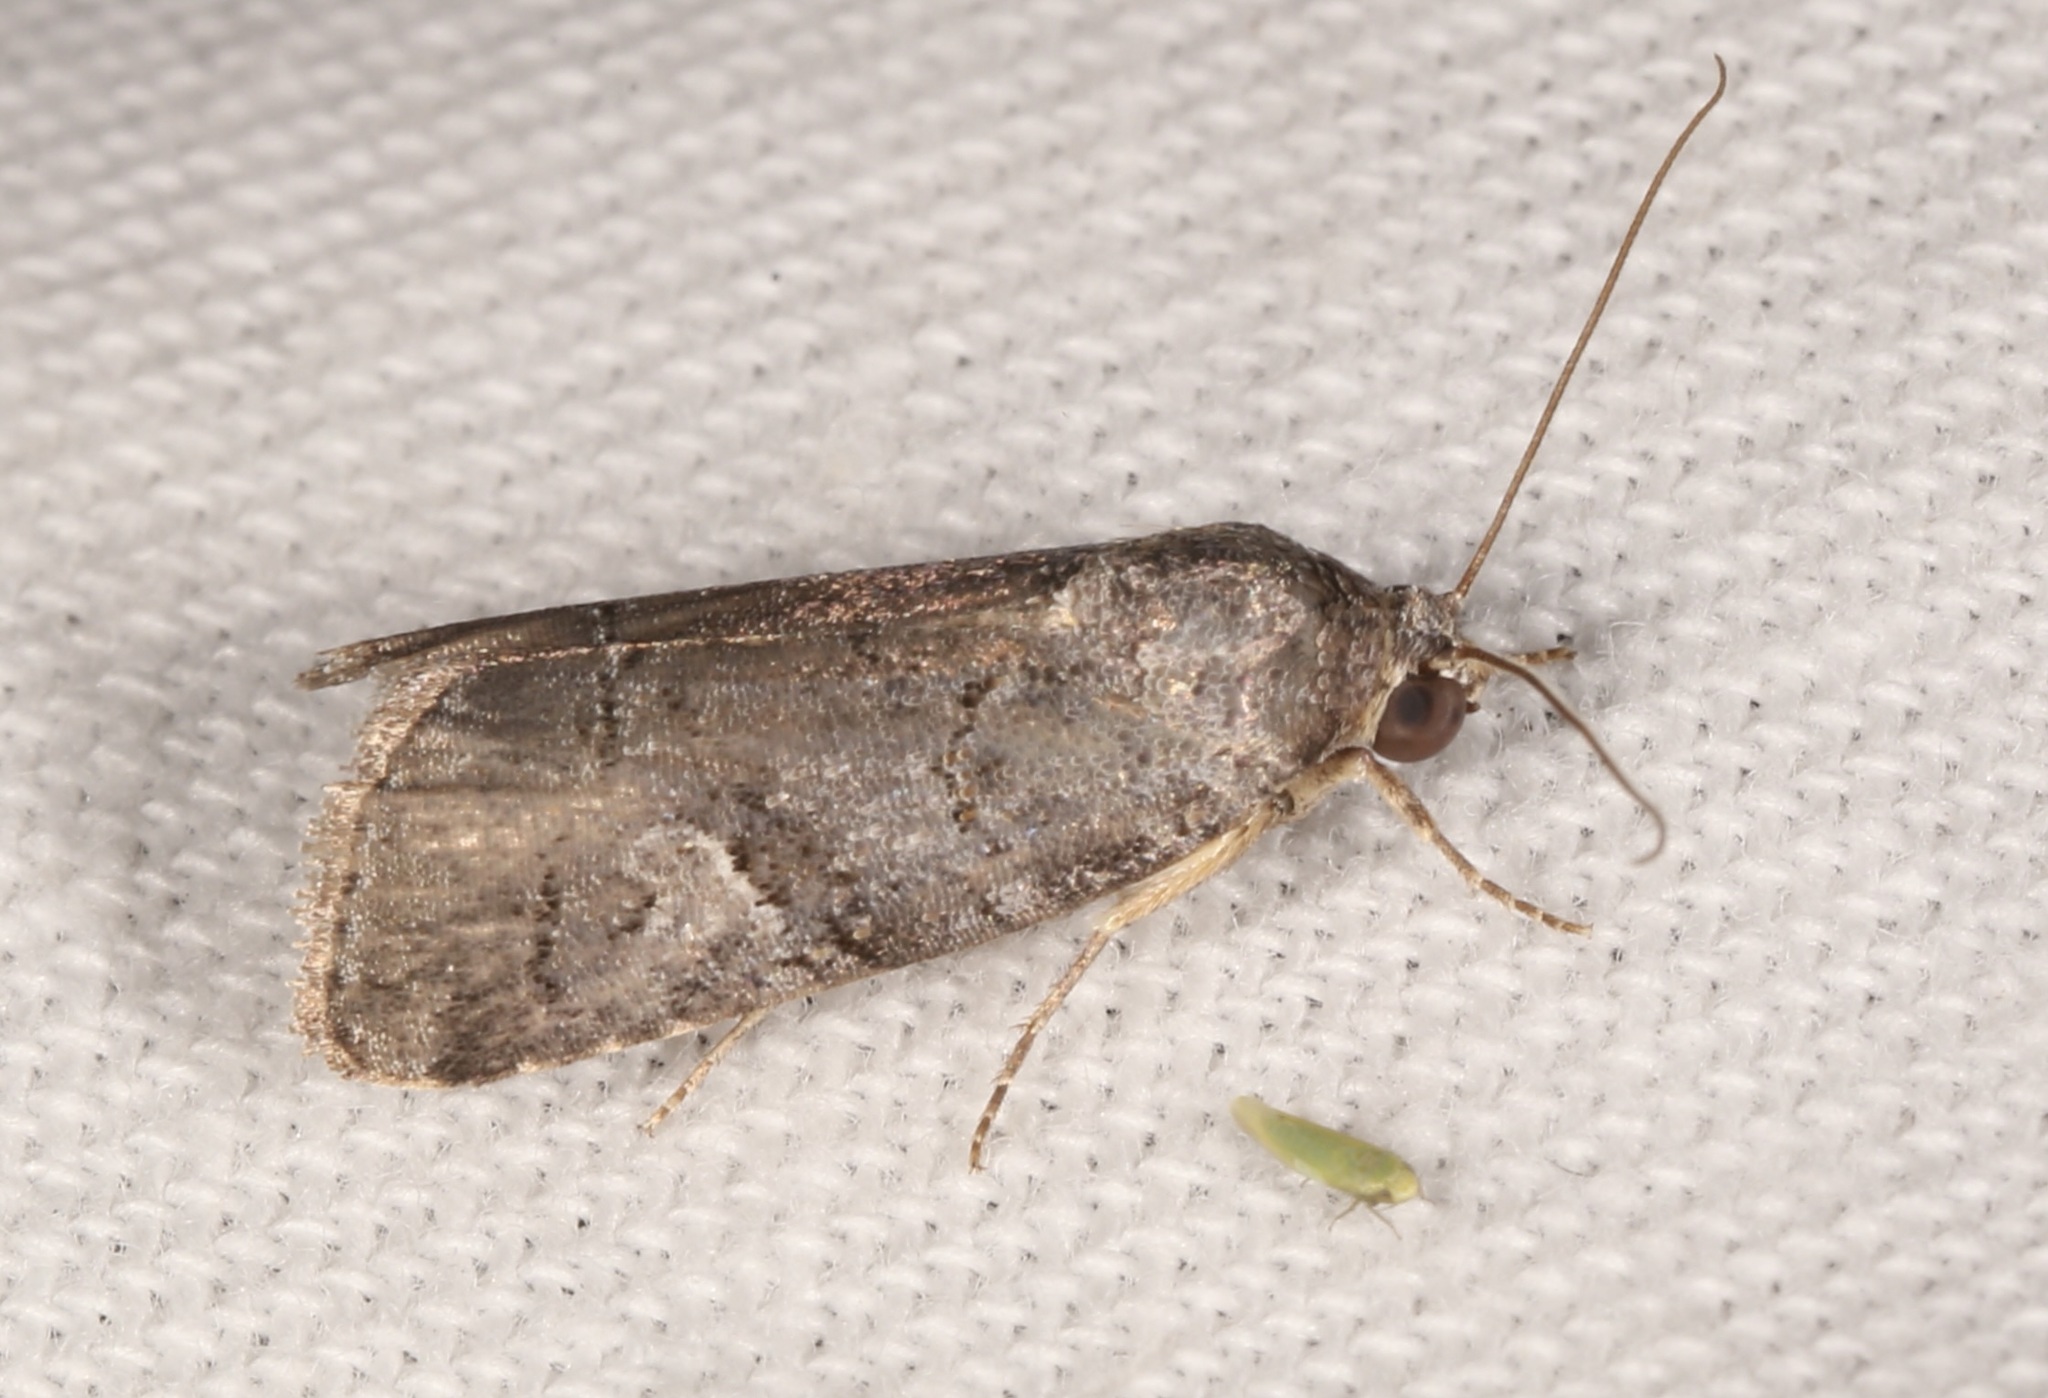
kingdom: Animalia
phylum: Arthropoda
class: Insecta
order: Lepidoptera
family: Noctuidae
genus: Metaponpneumata
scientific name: Metaponpneumata rogenhoferi
